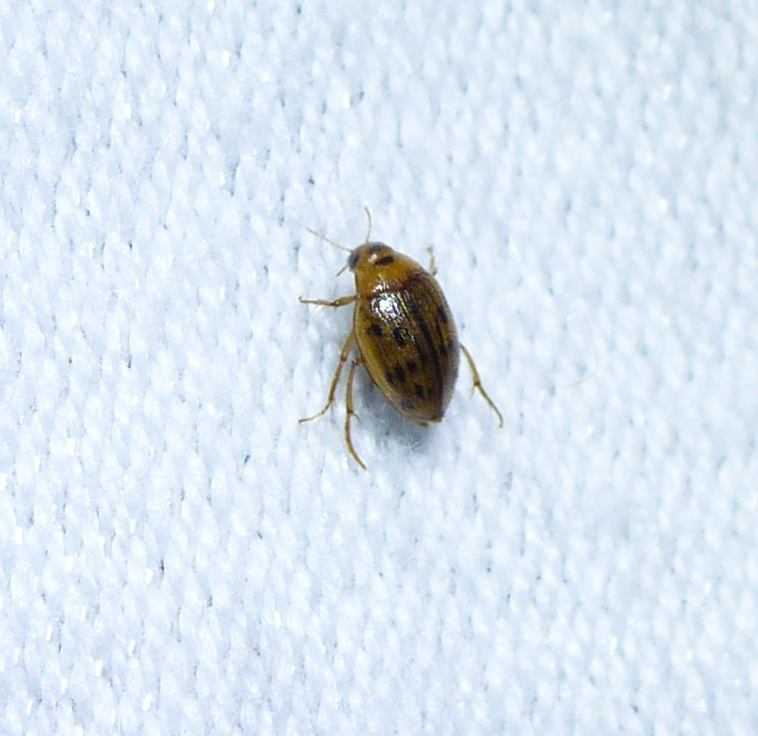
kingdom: Animalia
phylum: Arthropoda
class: Insecta
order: Coleoptera
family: Haliplidae
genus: Haliplus
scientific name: Haliplus
